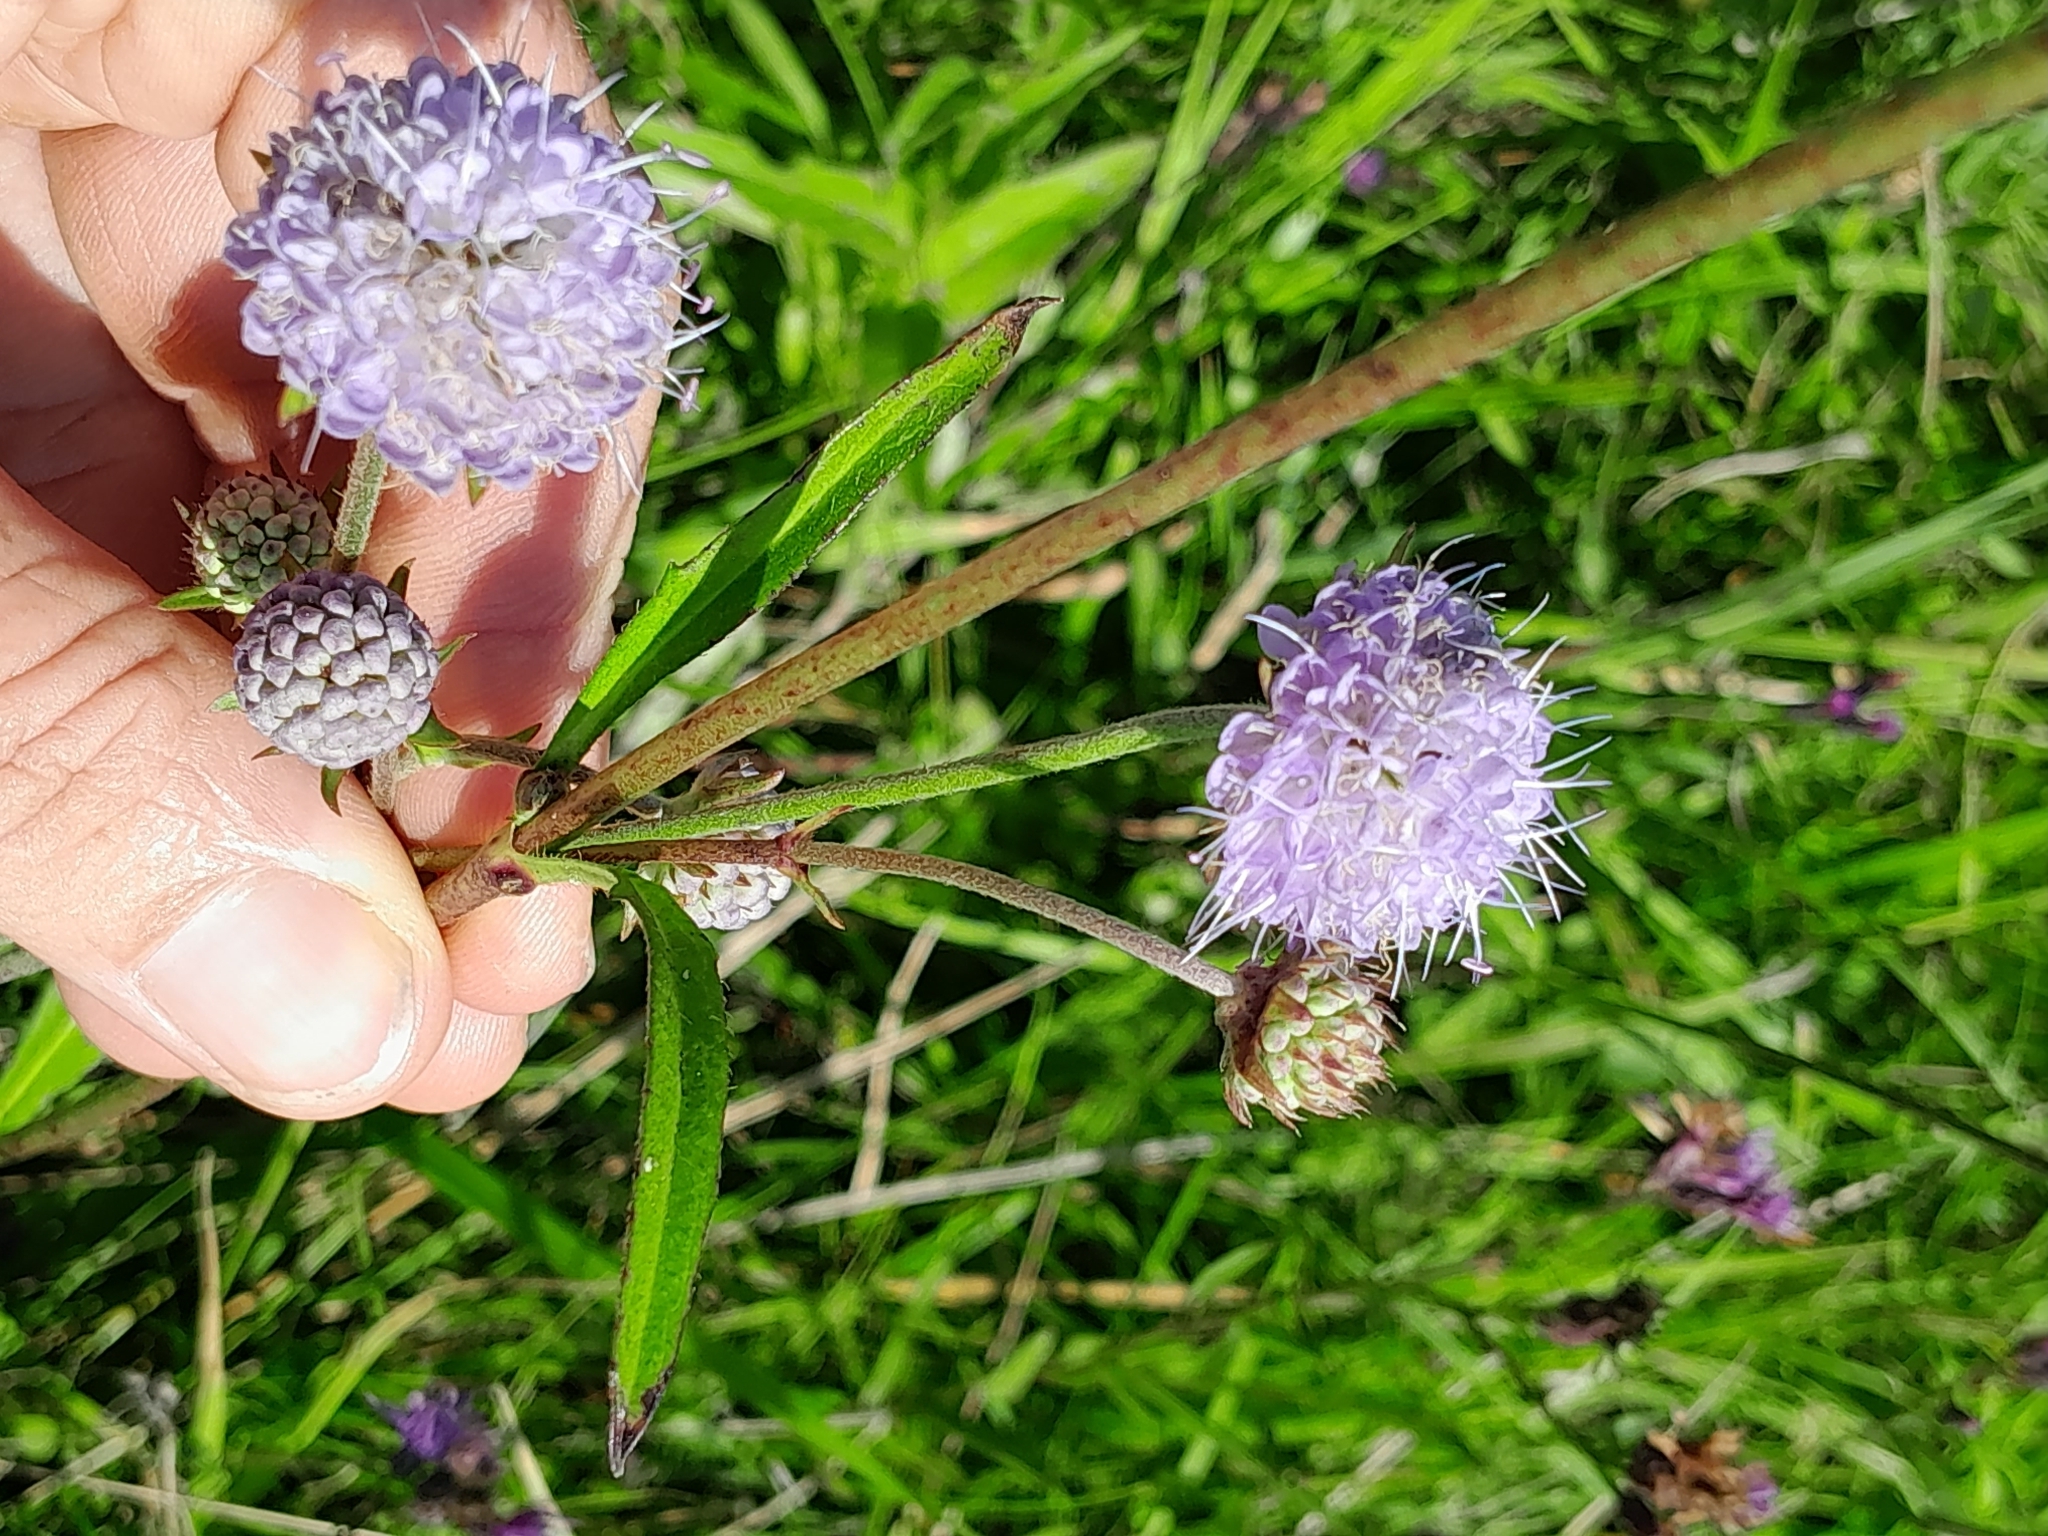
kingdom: Plantae
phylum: Tracheophyta
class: Magnoliopsida
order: Dipsacales
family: Caprifoliaceae
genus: Succisa
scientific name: Succisa pratensis
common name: Devil's-bit
